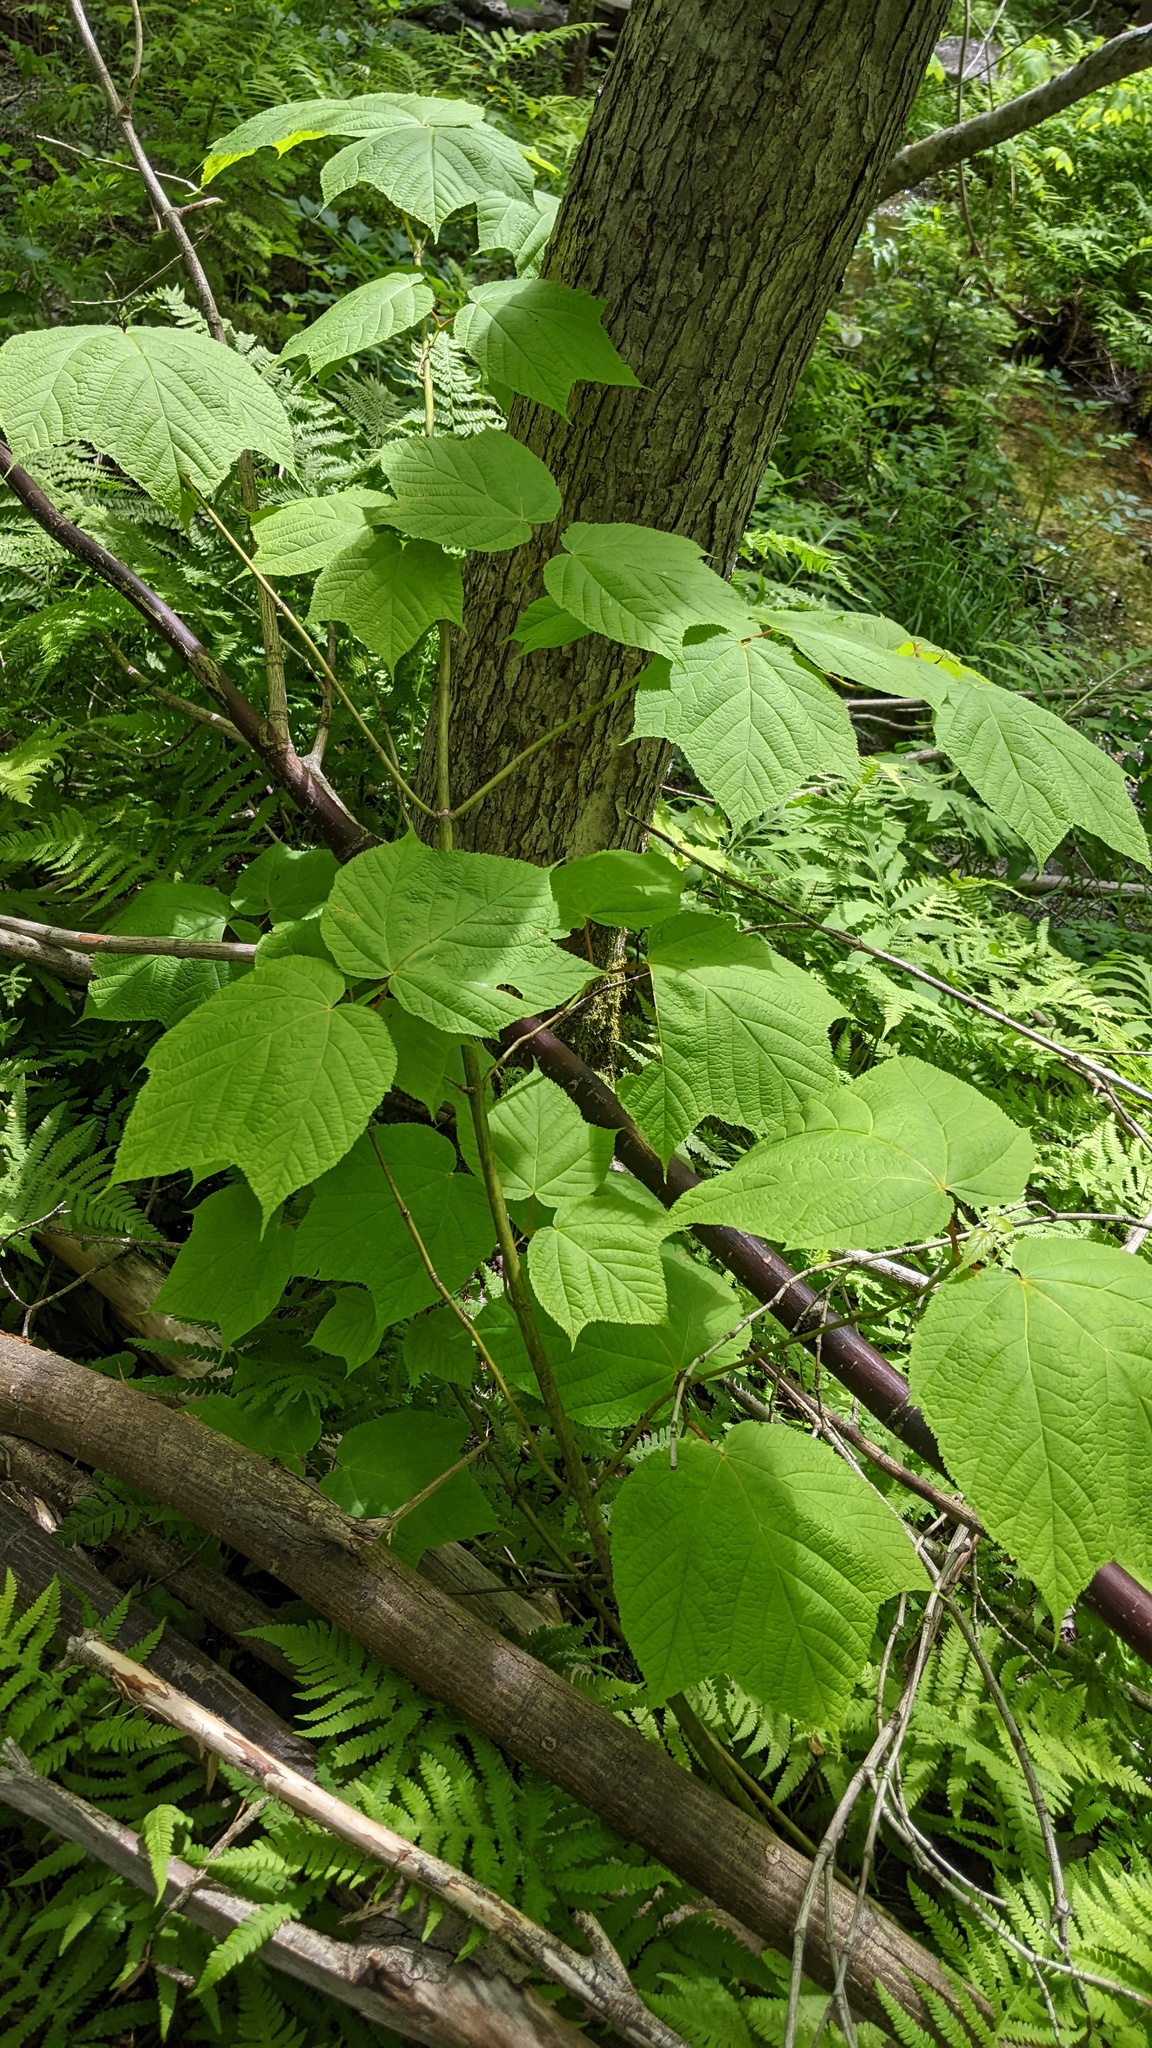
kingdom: Plantae
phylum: Tracheophyta
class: Magnoliopsida
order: Sapindales
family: Sapindaceae
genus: Acer
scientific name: Acer pensylvanicum
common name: Moosewood
